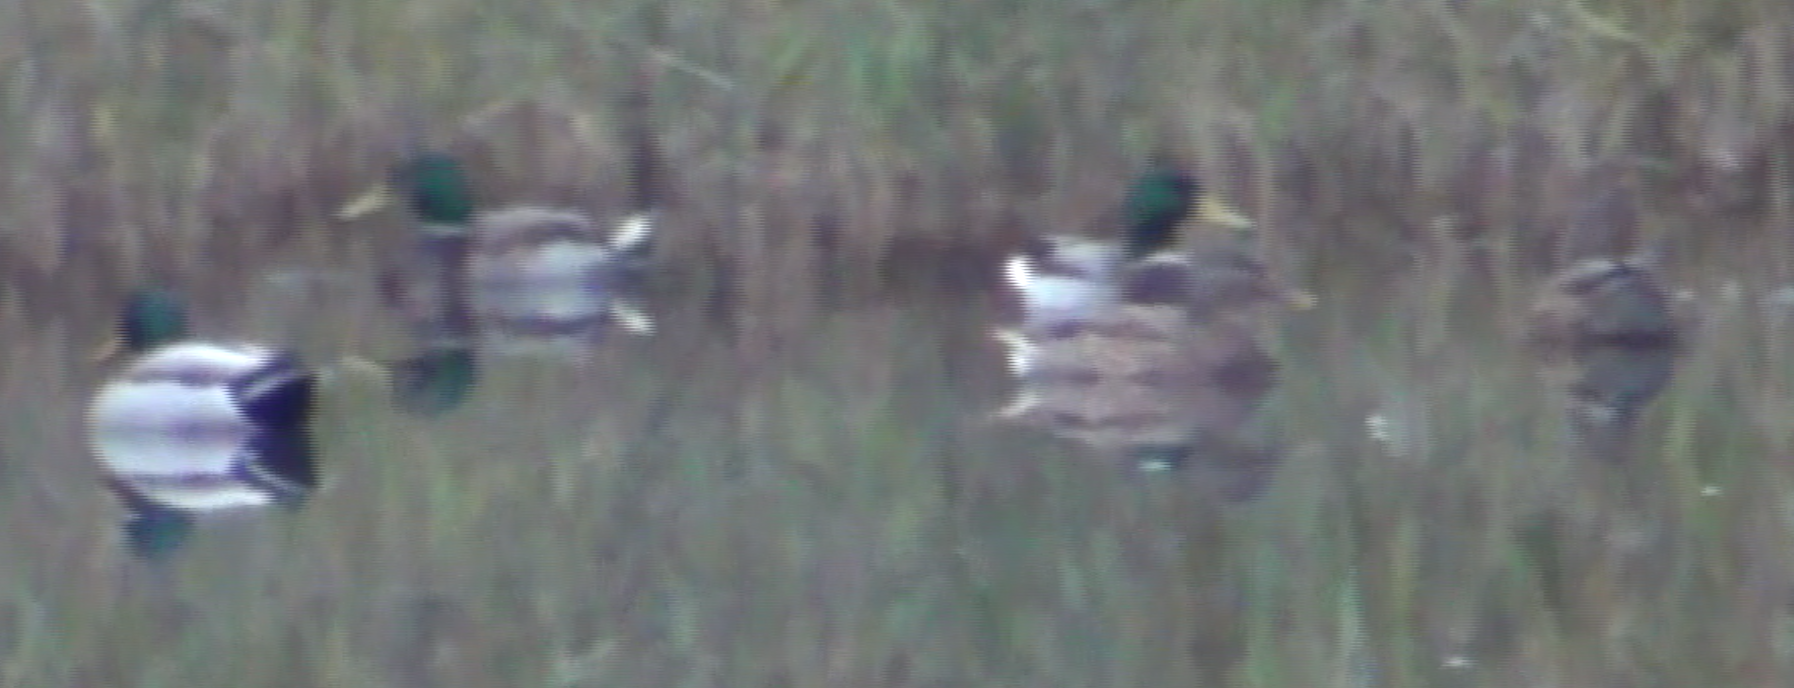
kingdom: Animalia
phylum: Chordata
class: Aves
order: Anseriformes
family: Anatidae
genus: Anas
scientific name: Anas platyrhynchos
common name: Mallard
